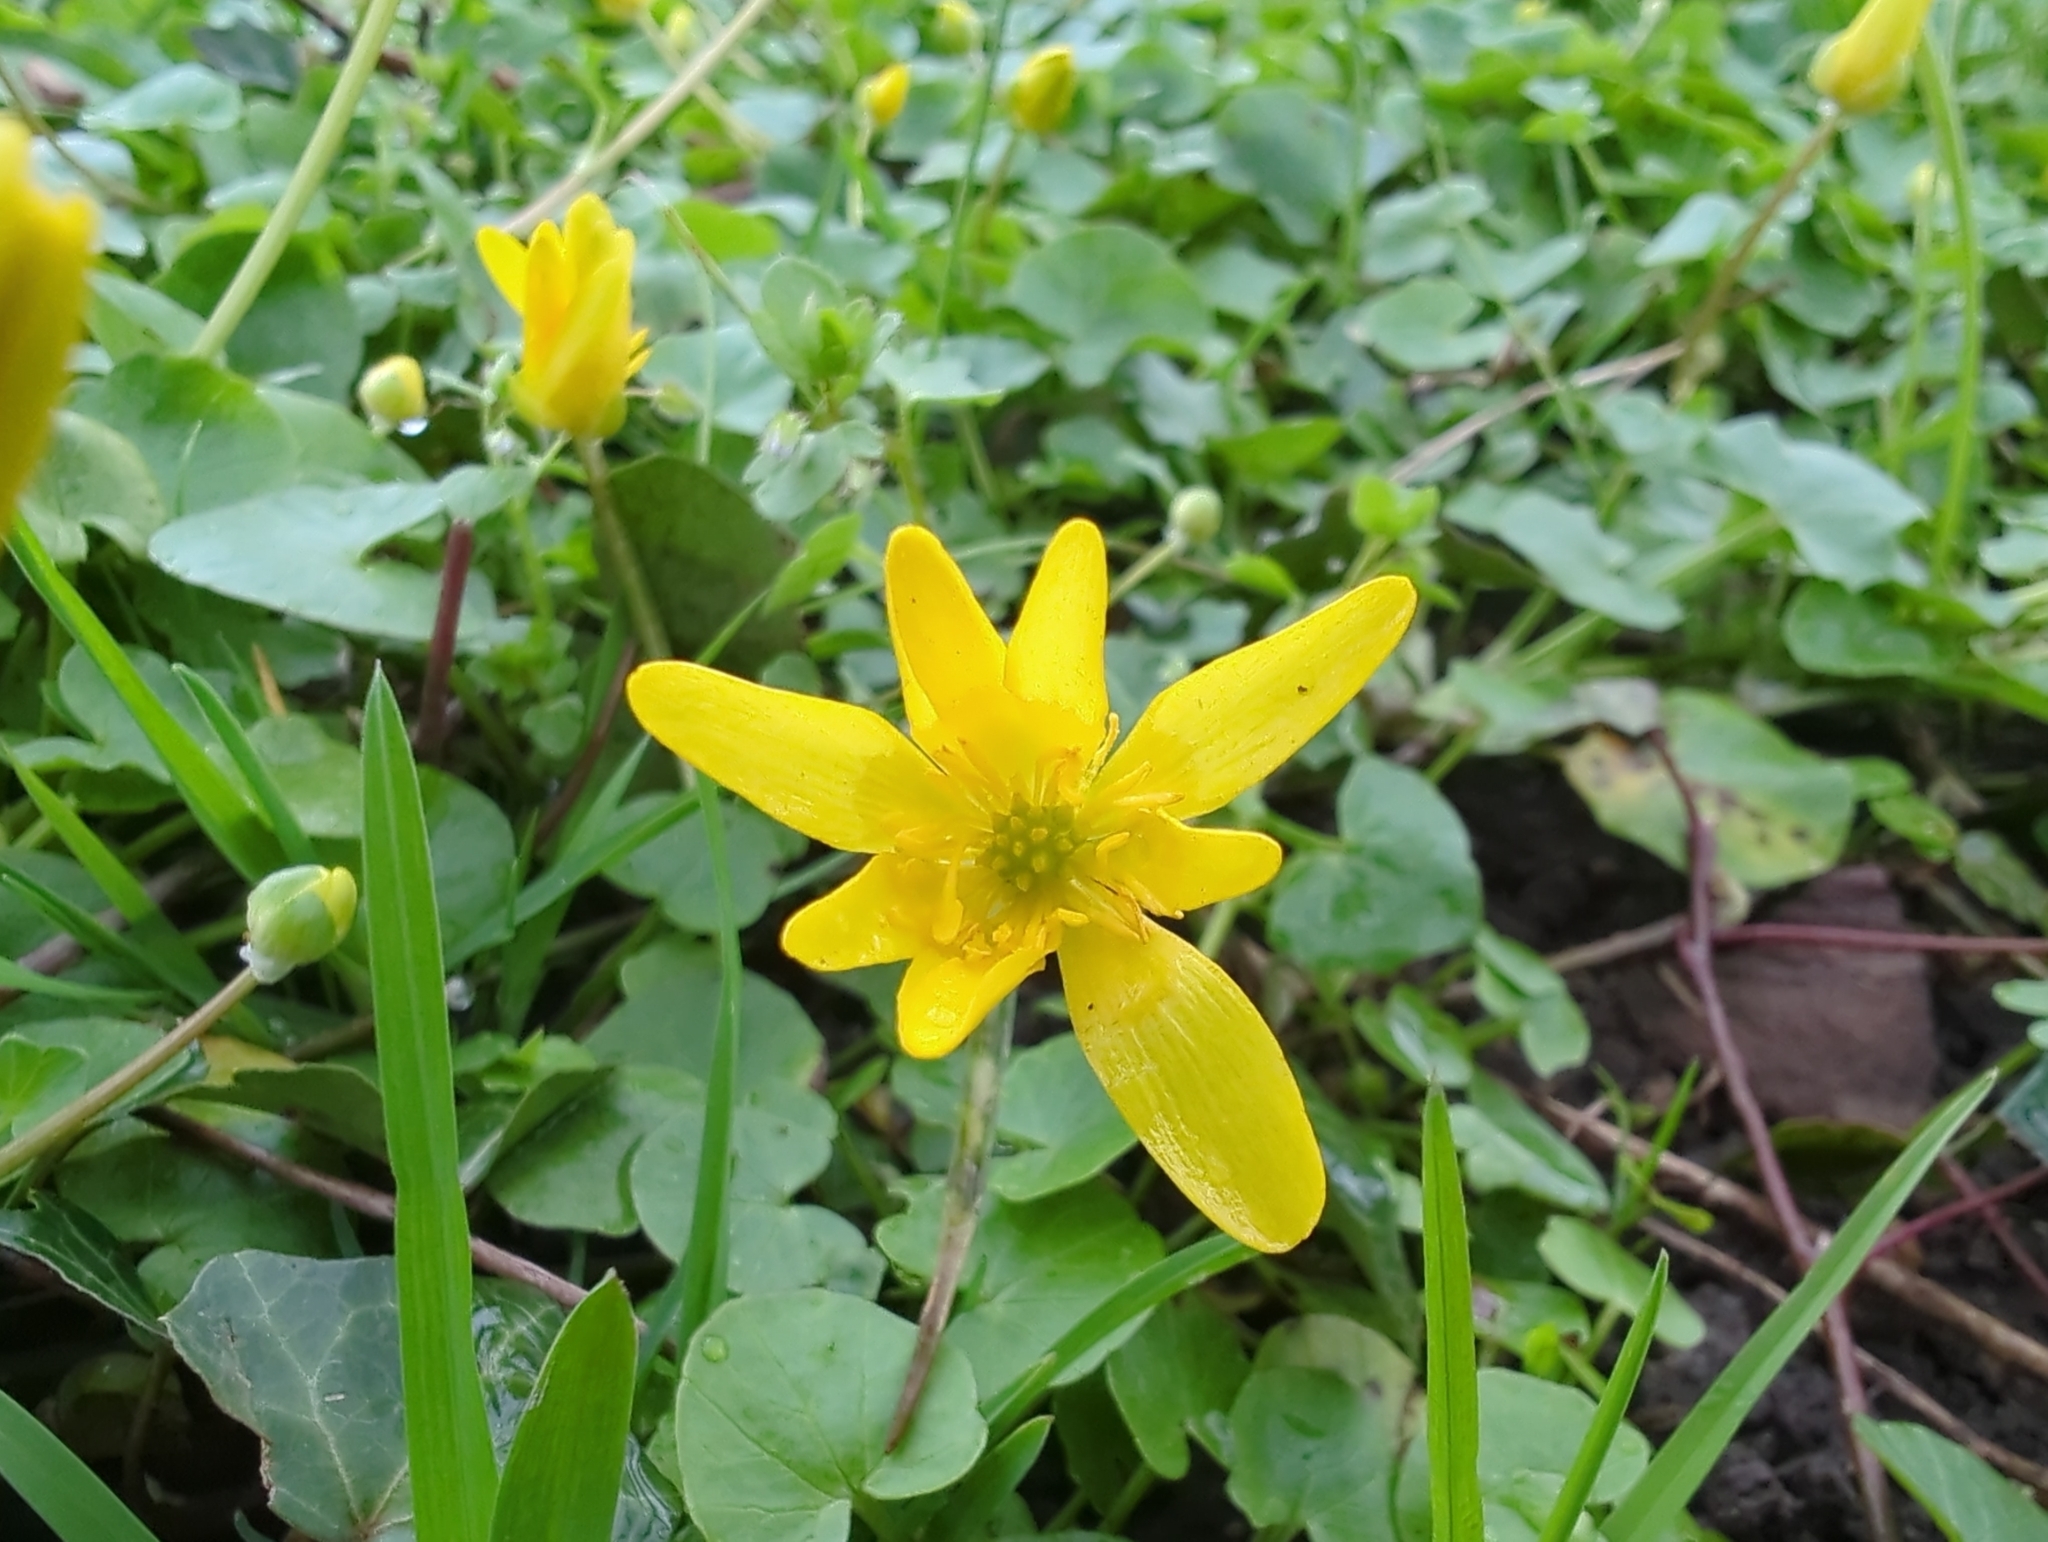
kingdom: Plantae
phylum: Tracheophyta
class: Magnoliopsida
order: Ranunculales
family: Ranunculaceae
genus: Ficaria
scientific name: Ficaria verna
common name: Lesser celandine
